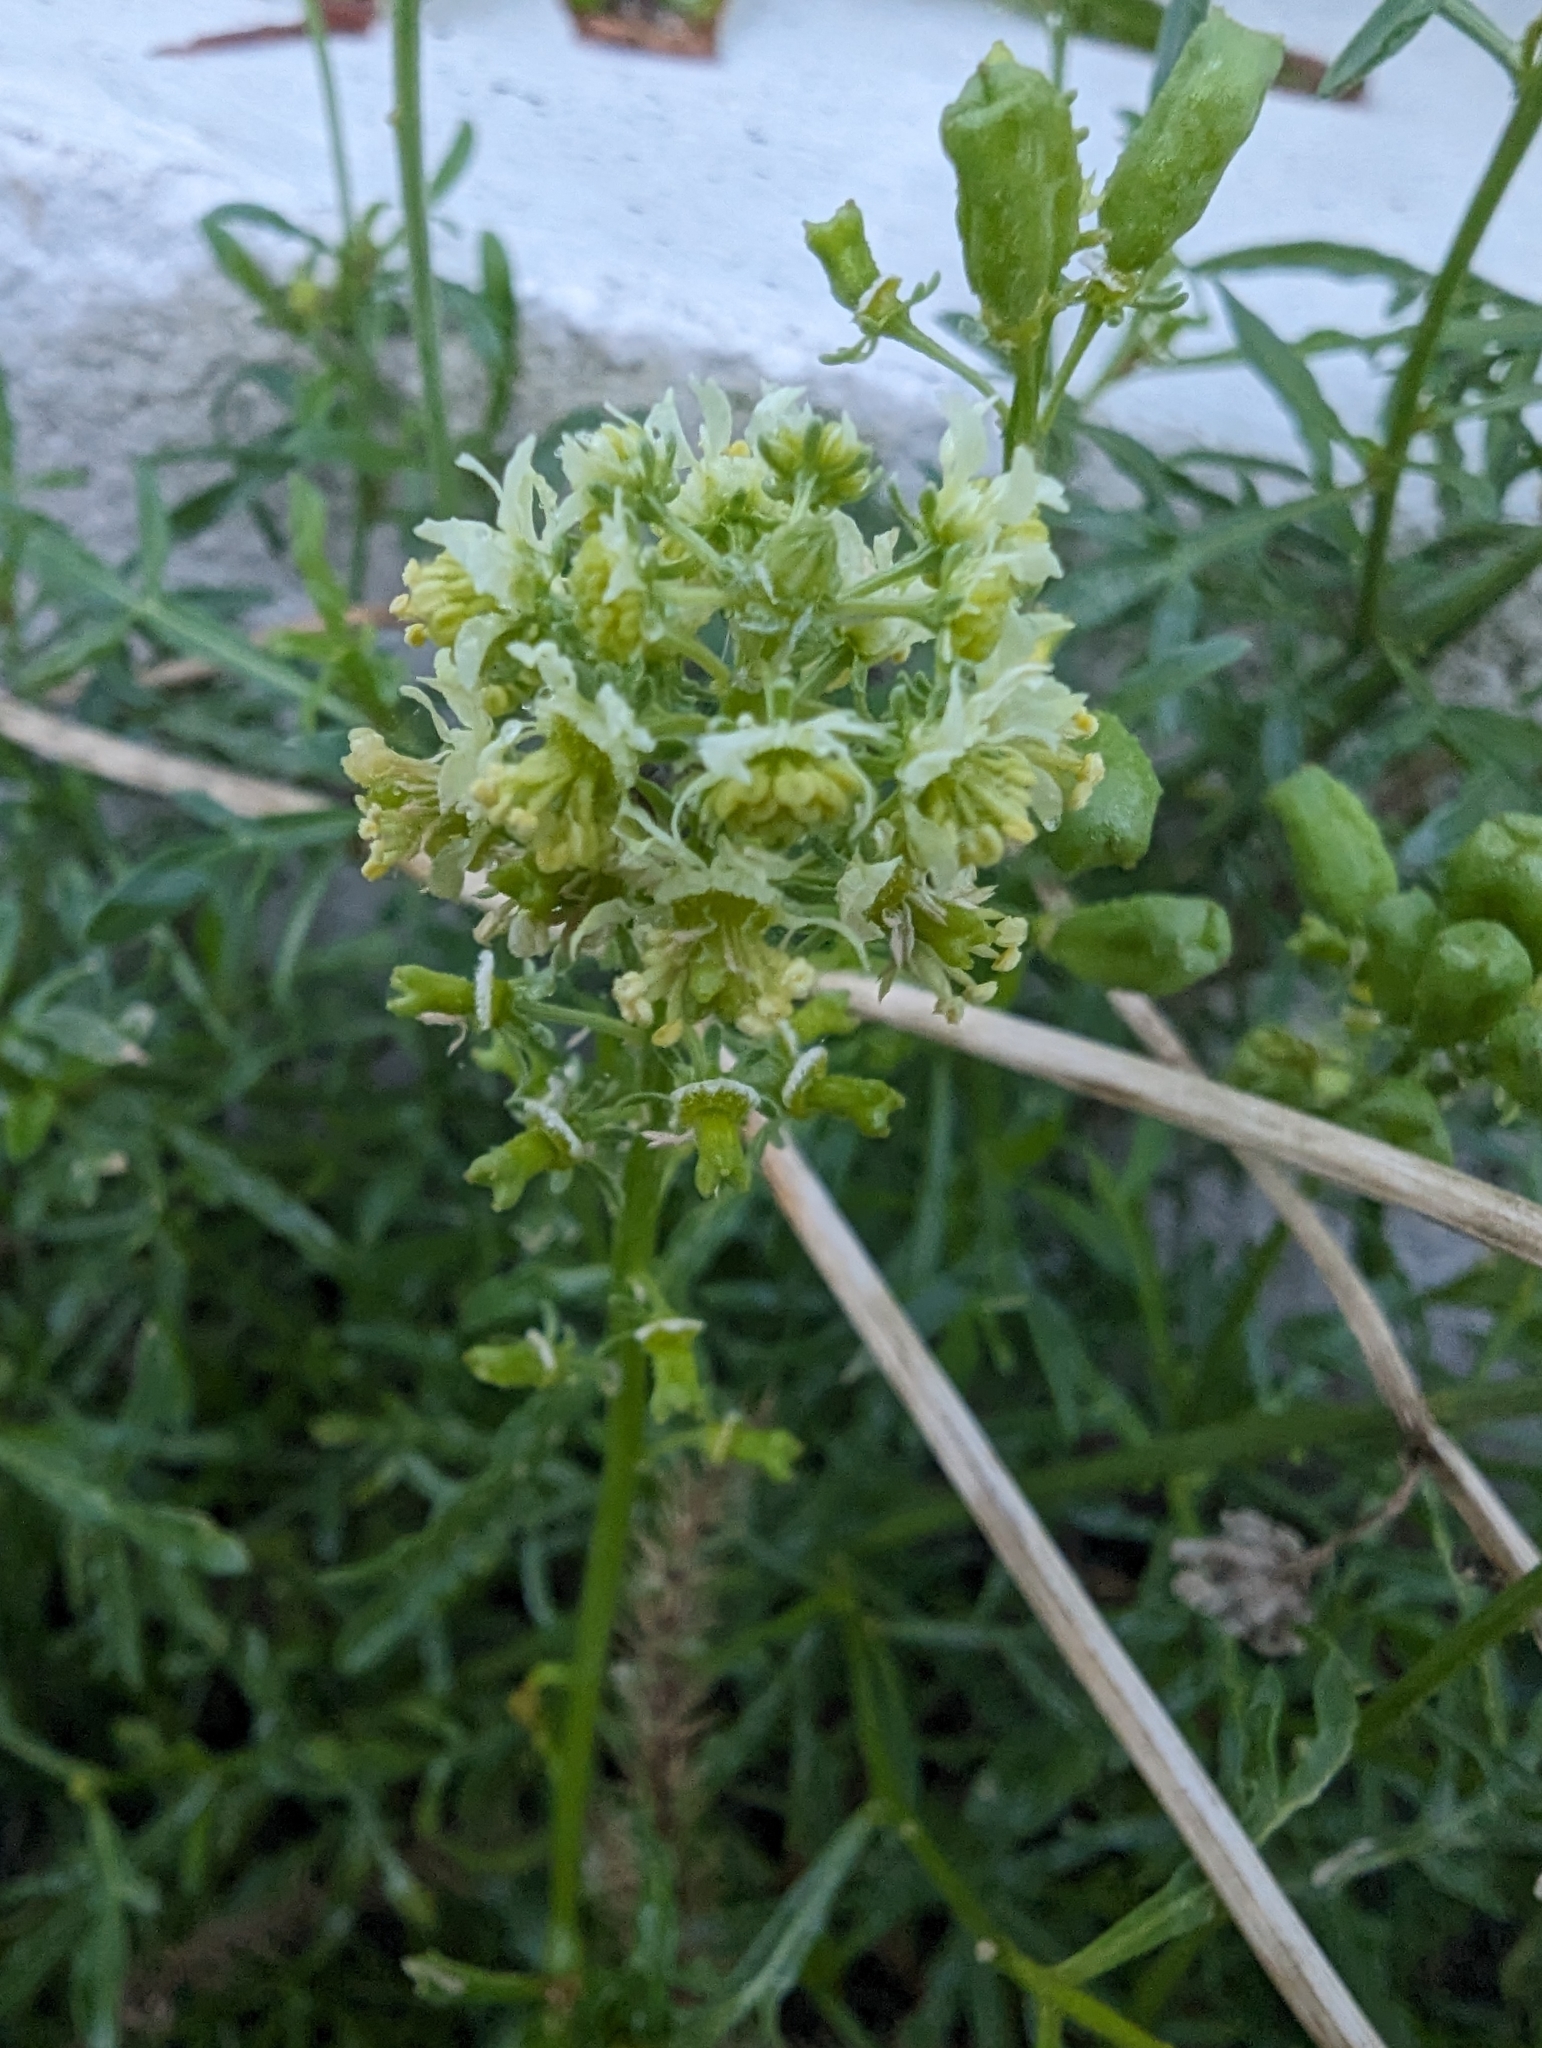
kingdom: Plantae
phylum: Tracheophyta
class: Magnoliopsida
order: Brassicales
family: Resedaceae
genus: Reseda
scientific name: Reseda lutea
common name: Wild mignonette
